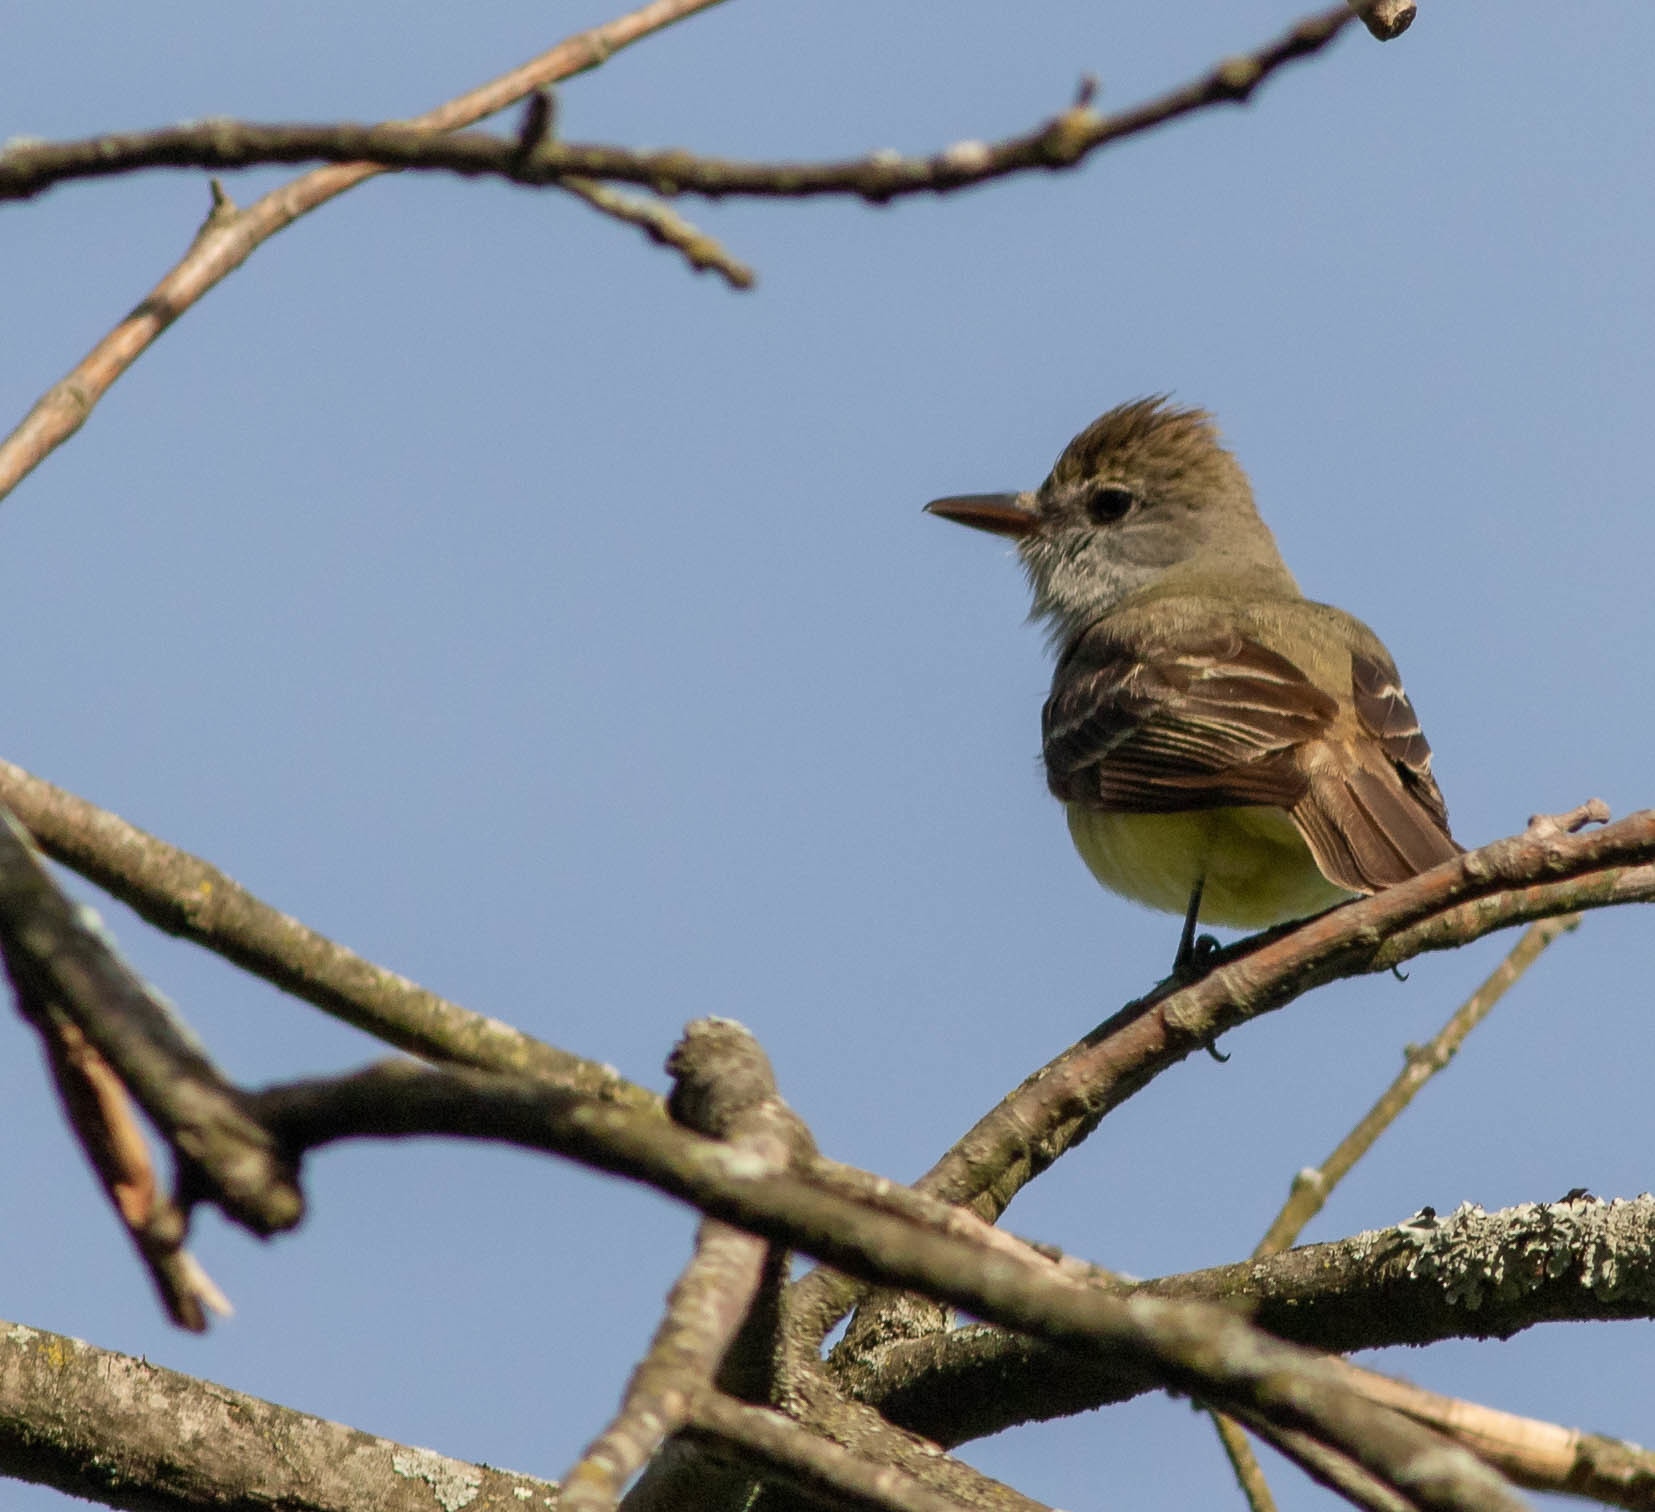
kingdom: Animalia
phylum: Chordata
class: Aves
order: Passeriformes
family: Tyrannidae
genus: Myiarchus
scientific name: Myiarchus crinitus
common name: Great crested flycatcher
